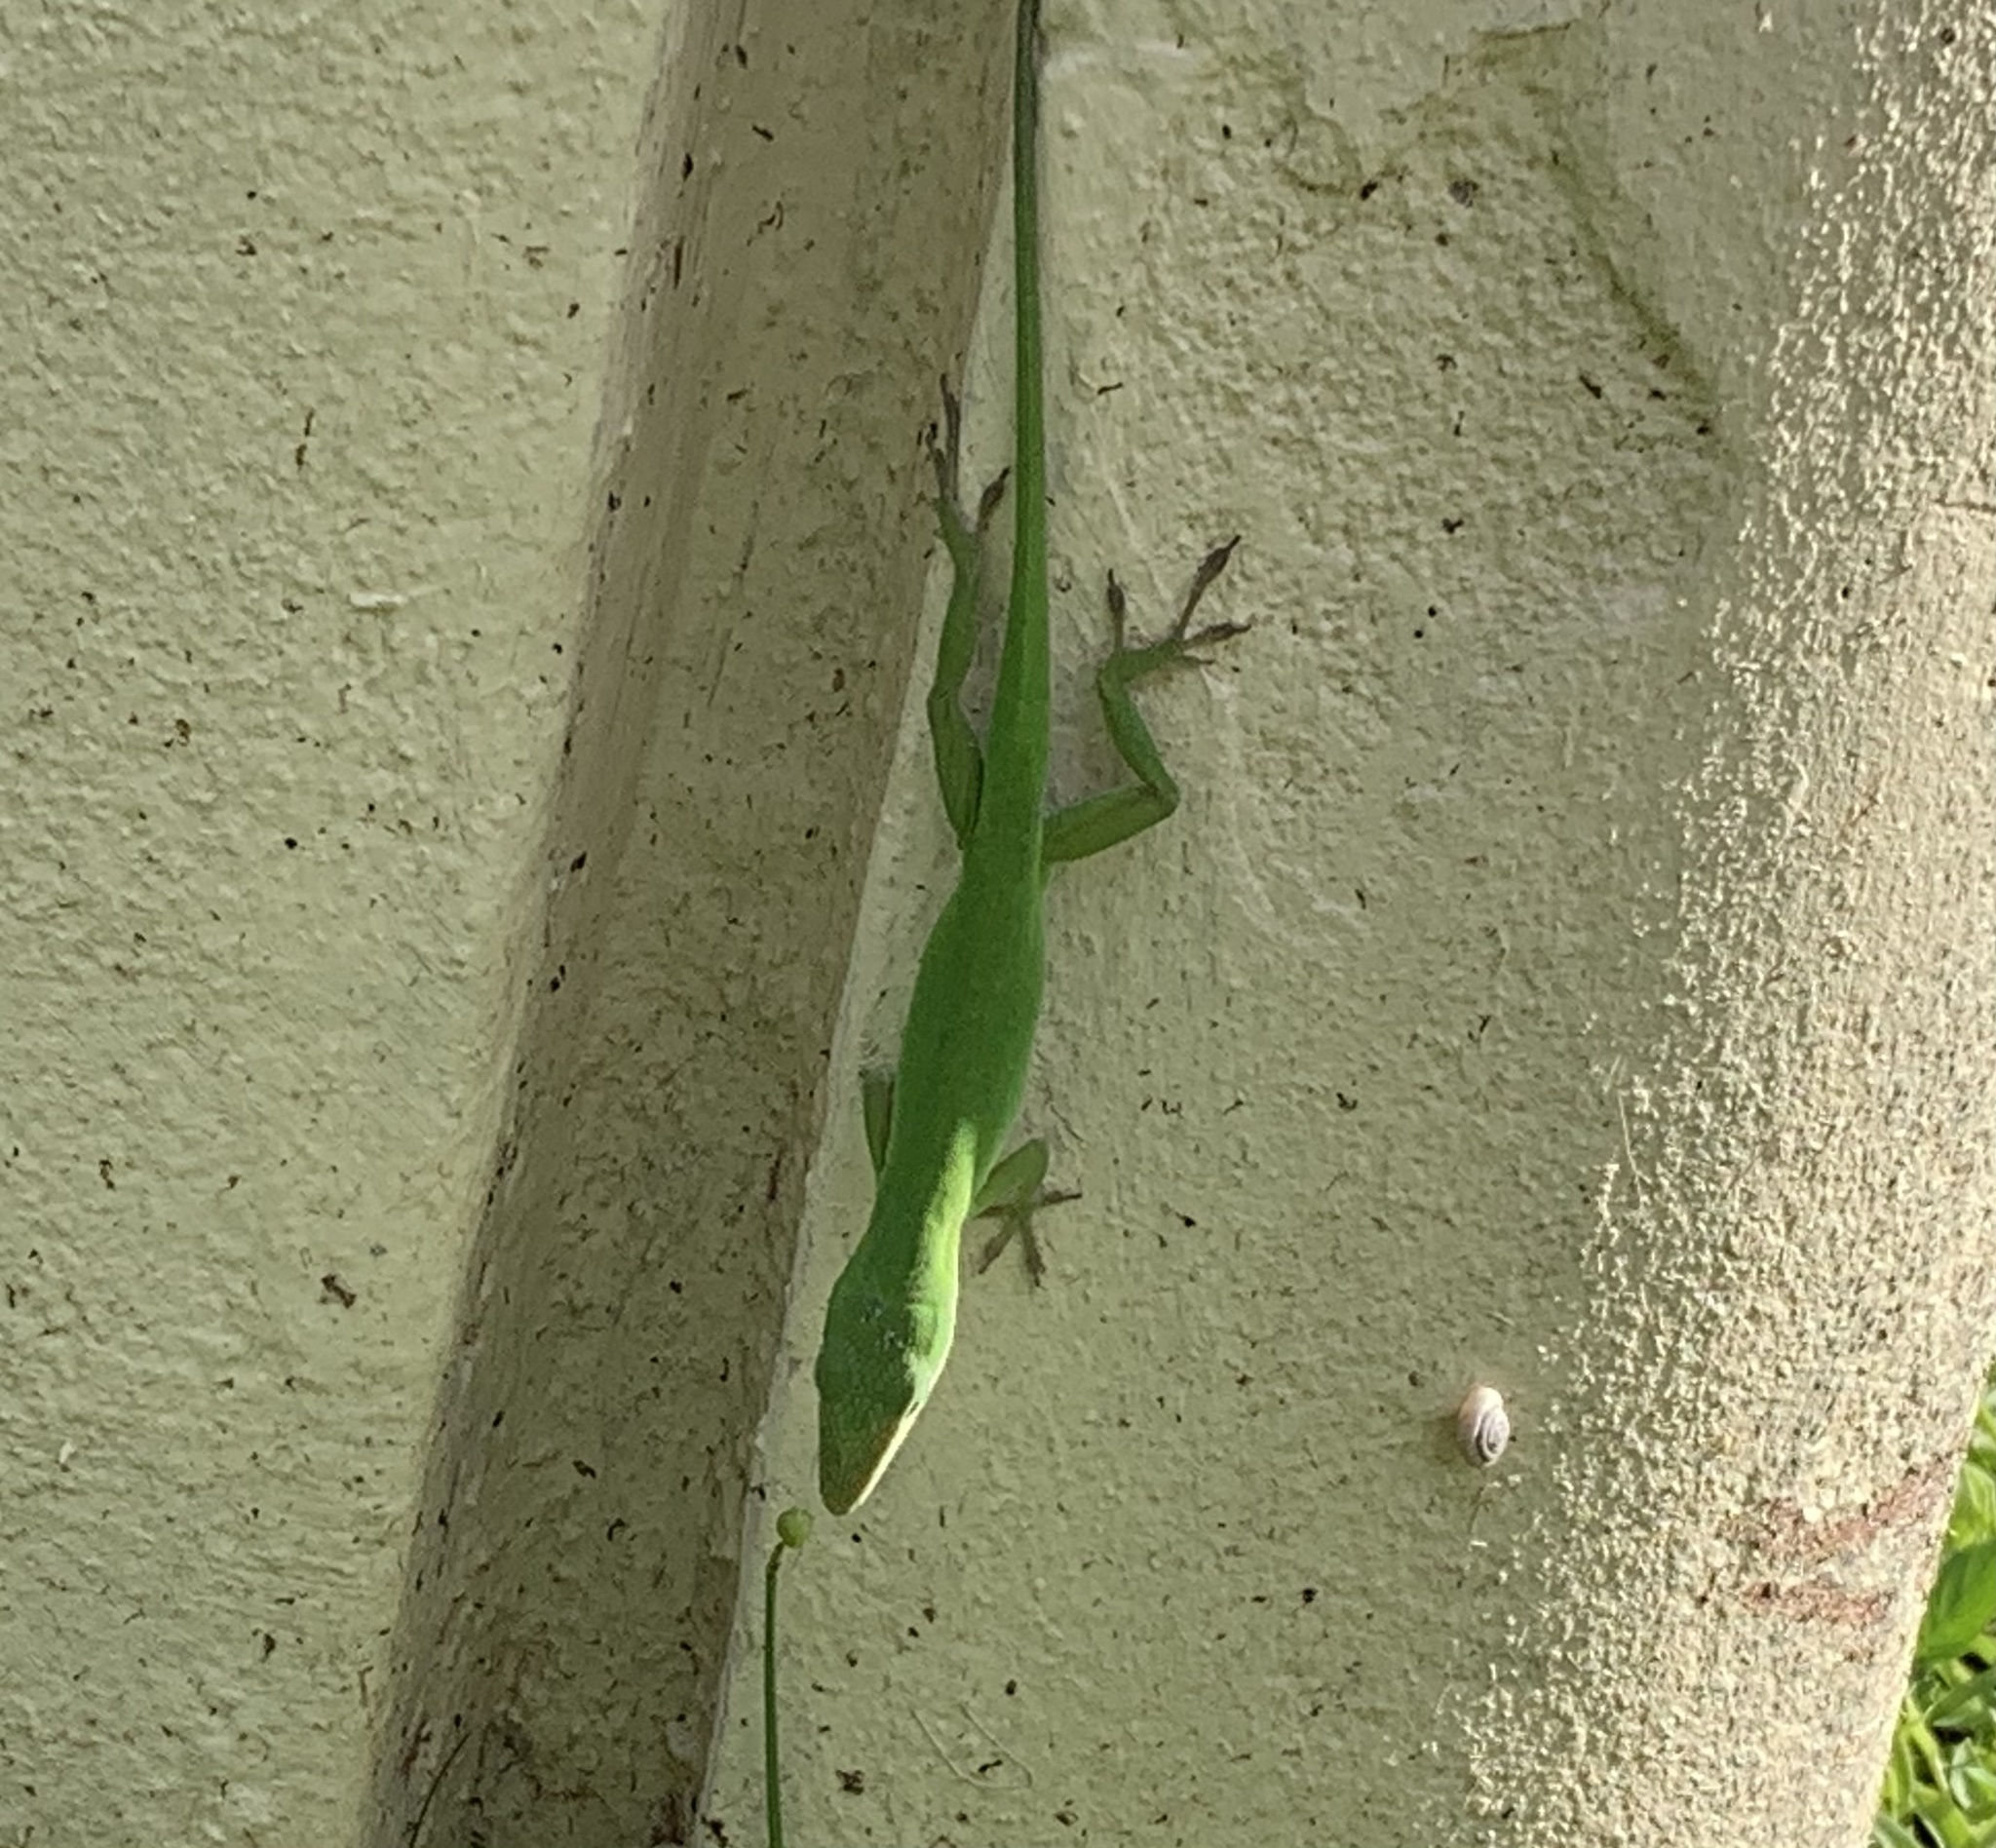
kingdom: Animalia
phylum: Chordata
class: Squamata
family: Dactyloidae
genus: Anolis
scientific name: Anolis carolinensis
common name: Green anole
